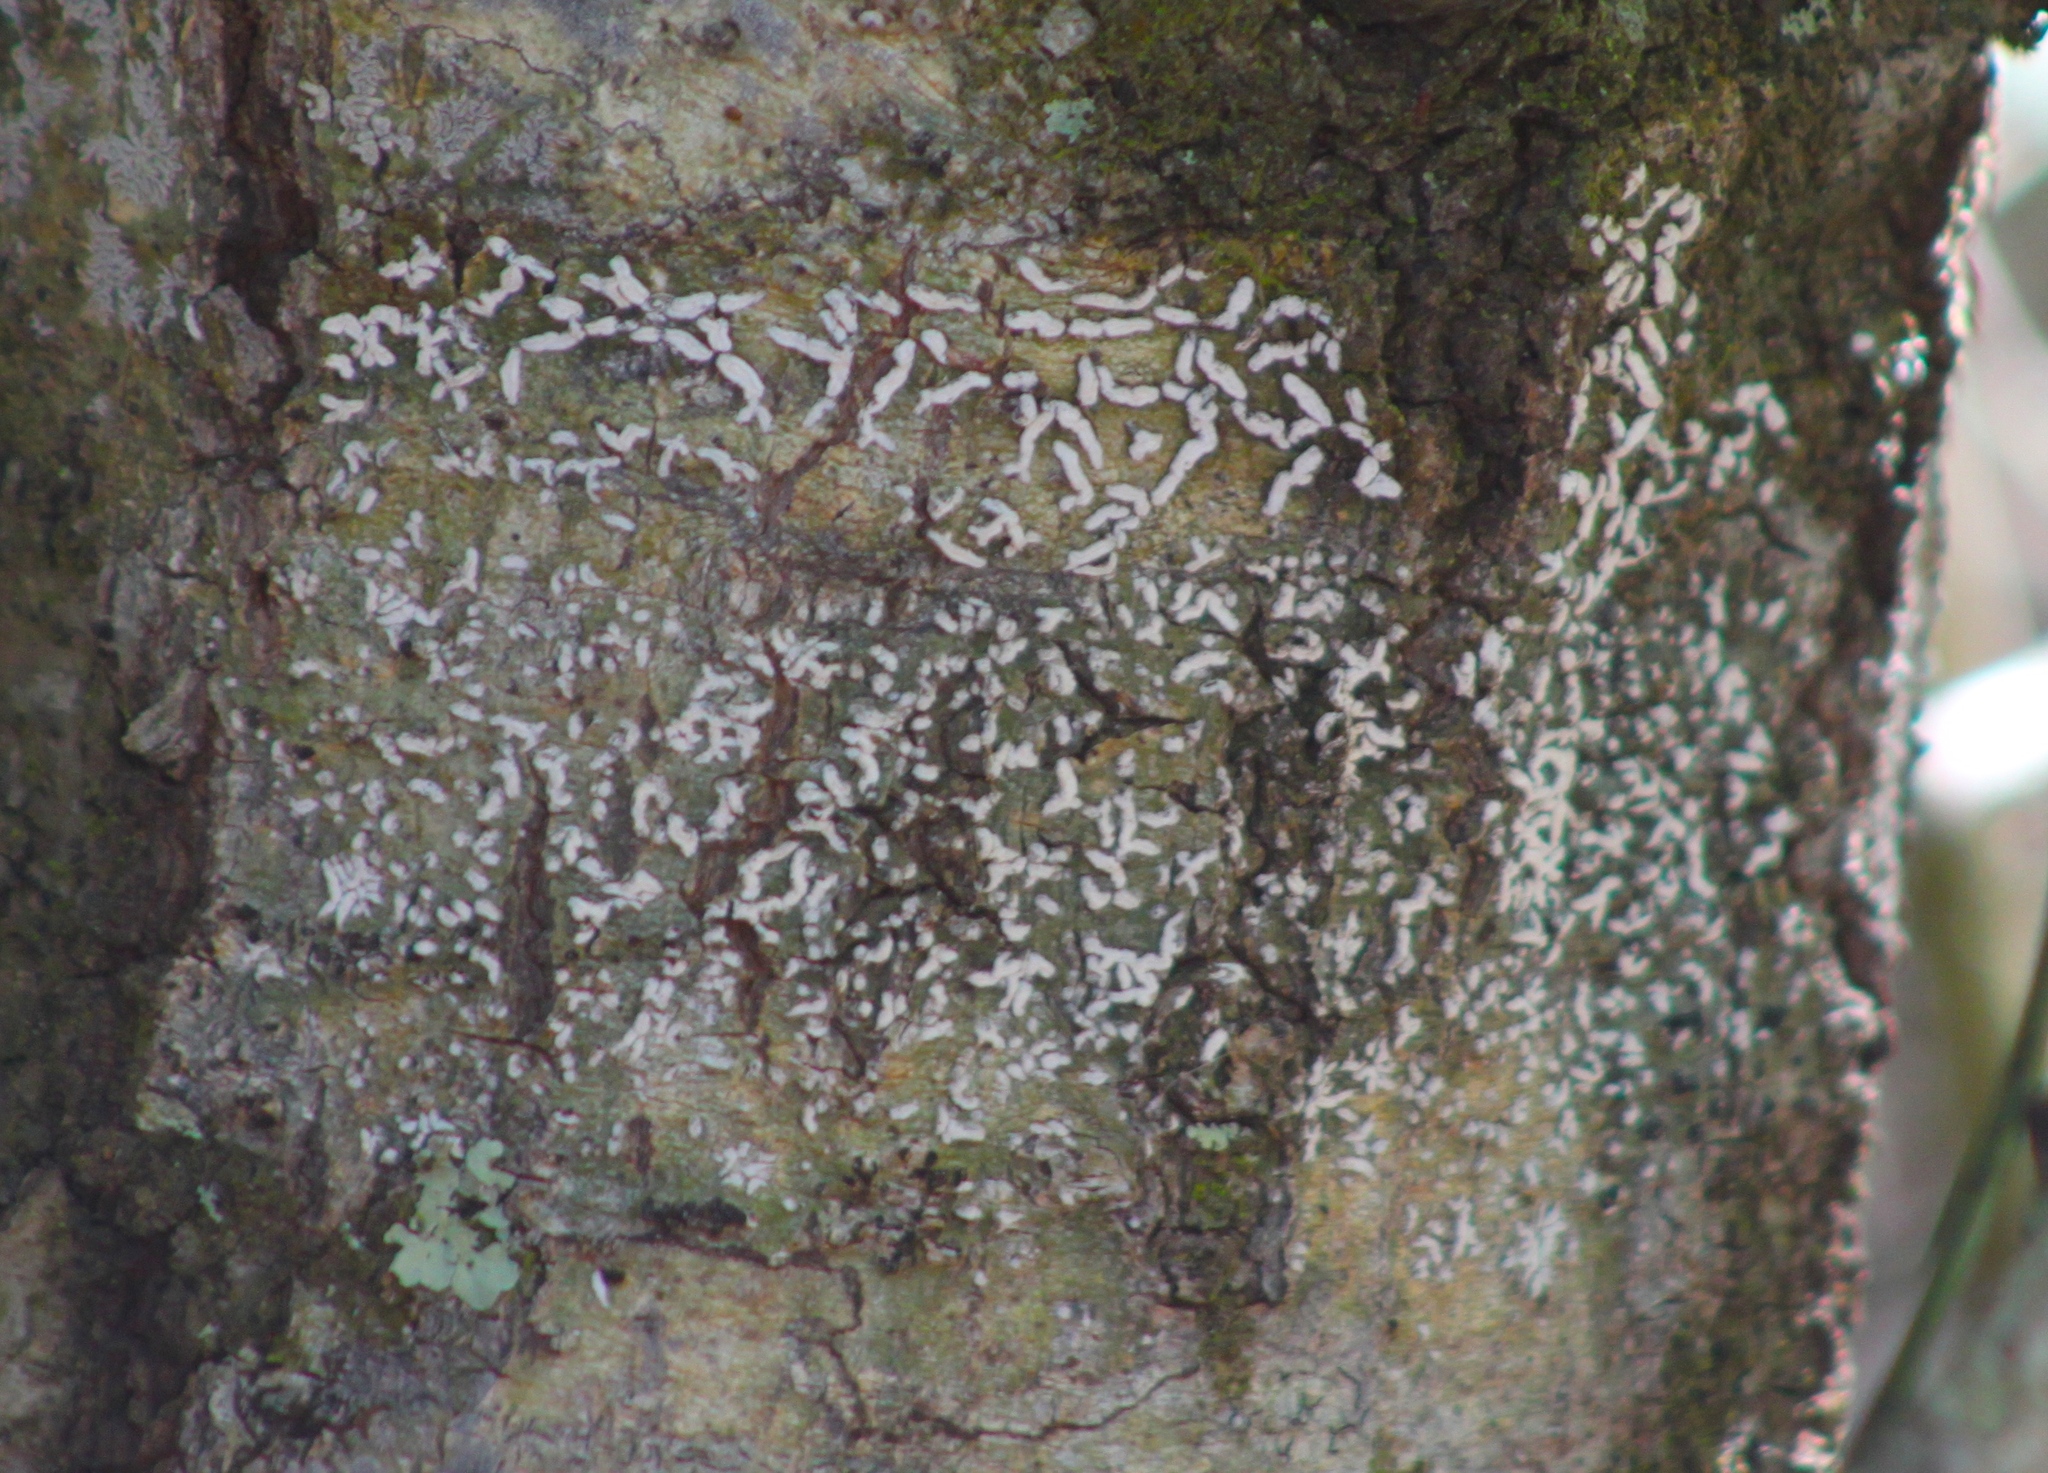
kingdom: Fungi
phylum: Ascomycota
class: Lecanoromycetes
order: Ostropales
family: Graphidaceae
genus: Dyplolabia
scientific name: Dyplolabia afzelii
